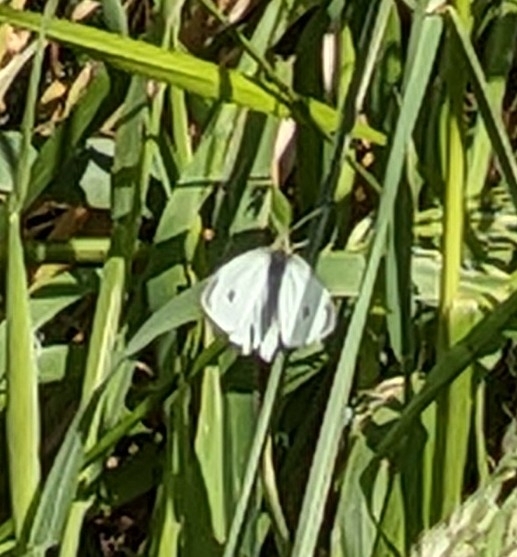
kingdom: Animalia
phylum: Arthropoda
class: Insecta
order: Lepidoptera
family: Pieridae
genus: Pieris
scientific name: Pieris rapae
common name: Small white
